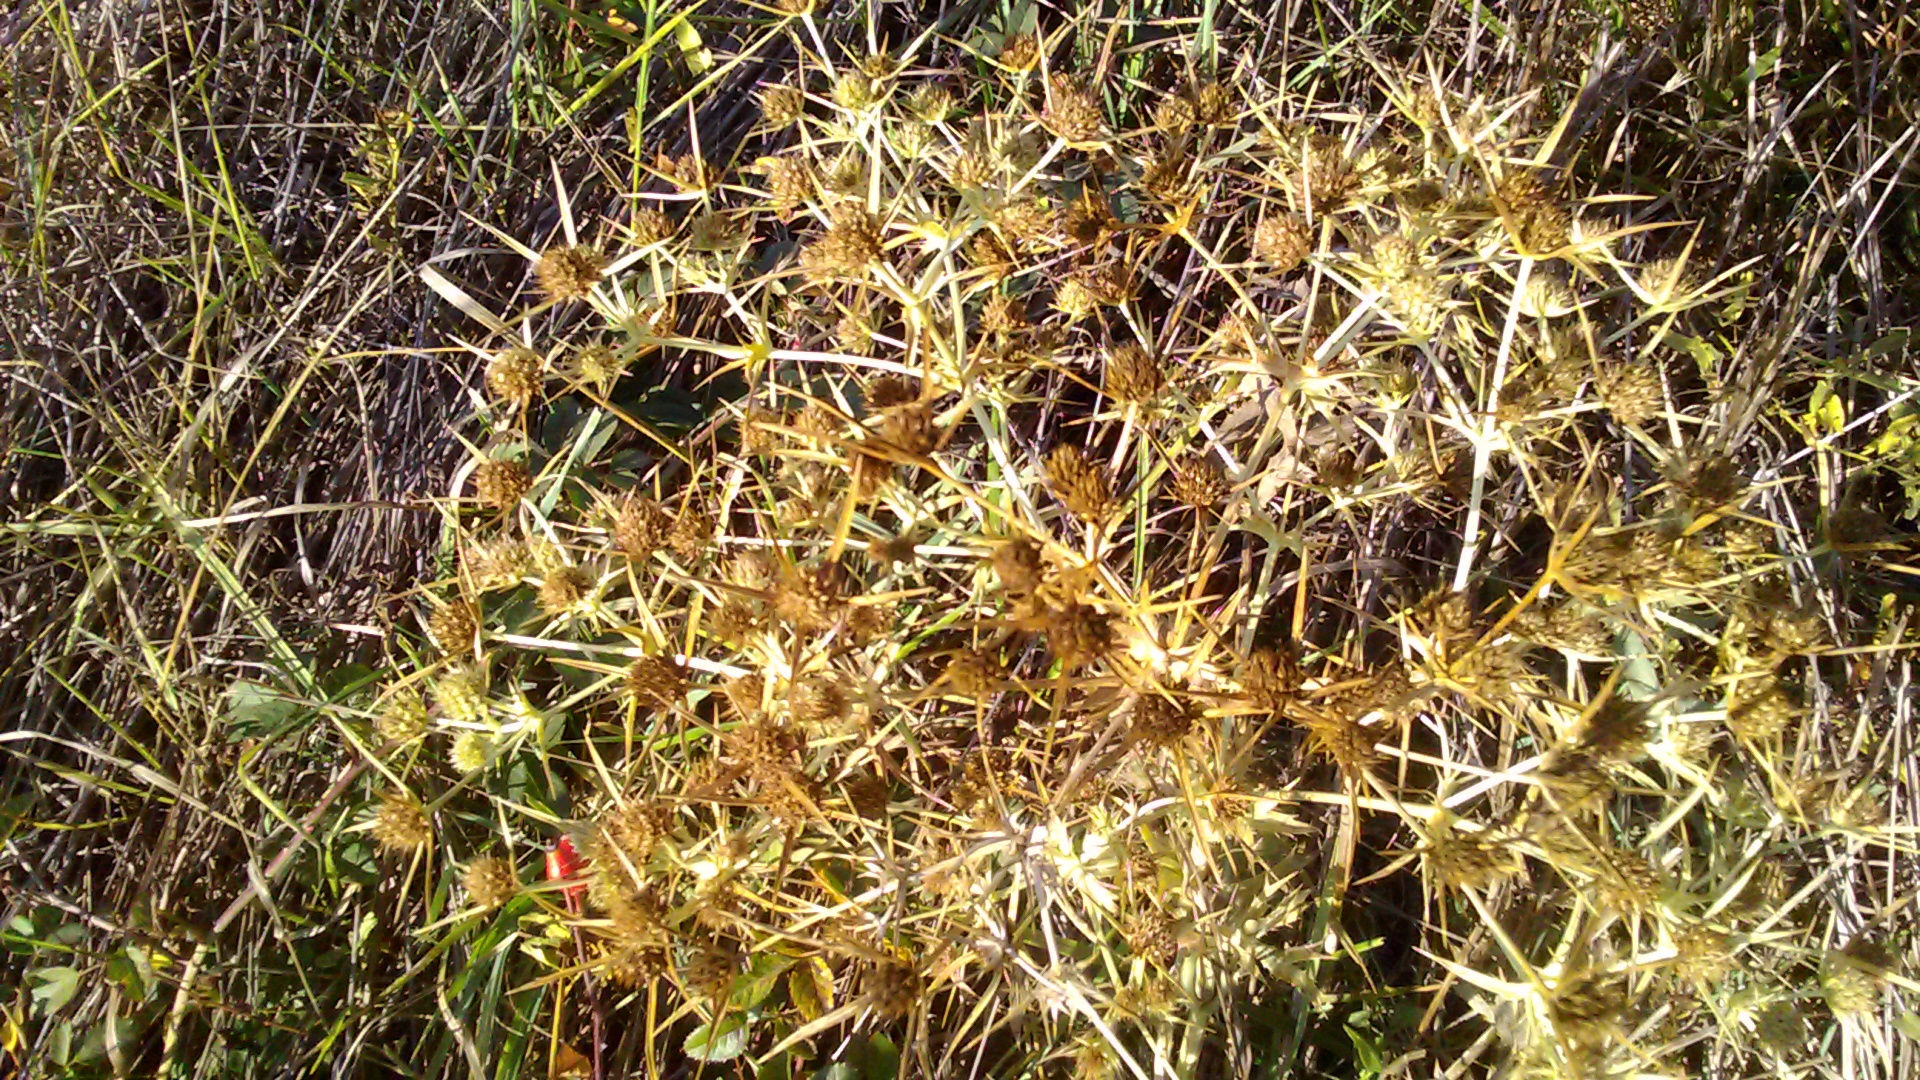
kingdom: Plantae
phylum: Tracheophyta
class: Magnoliopsida
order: Apiales
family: Apiaceae
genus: Eryngium
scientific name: Eryngium campestre
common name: Field eryngo
